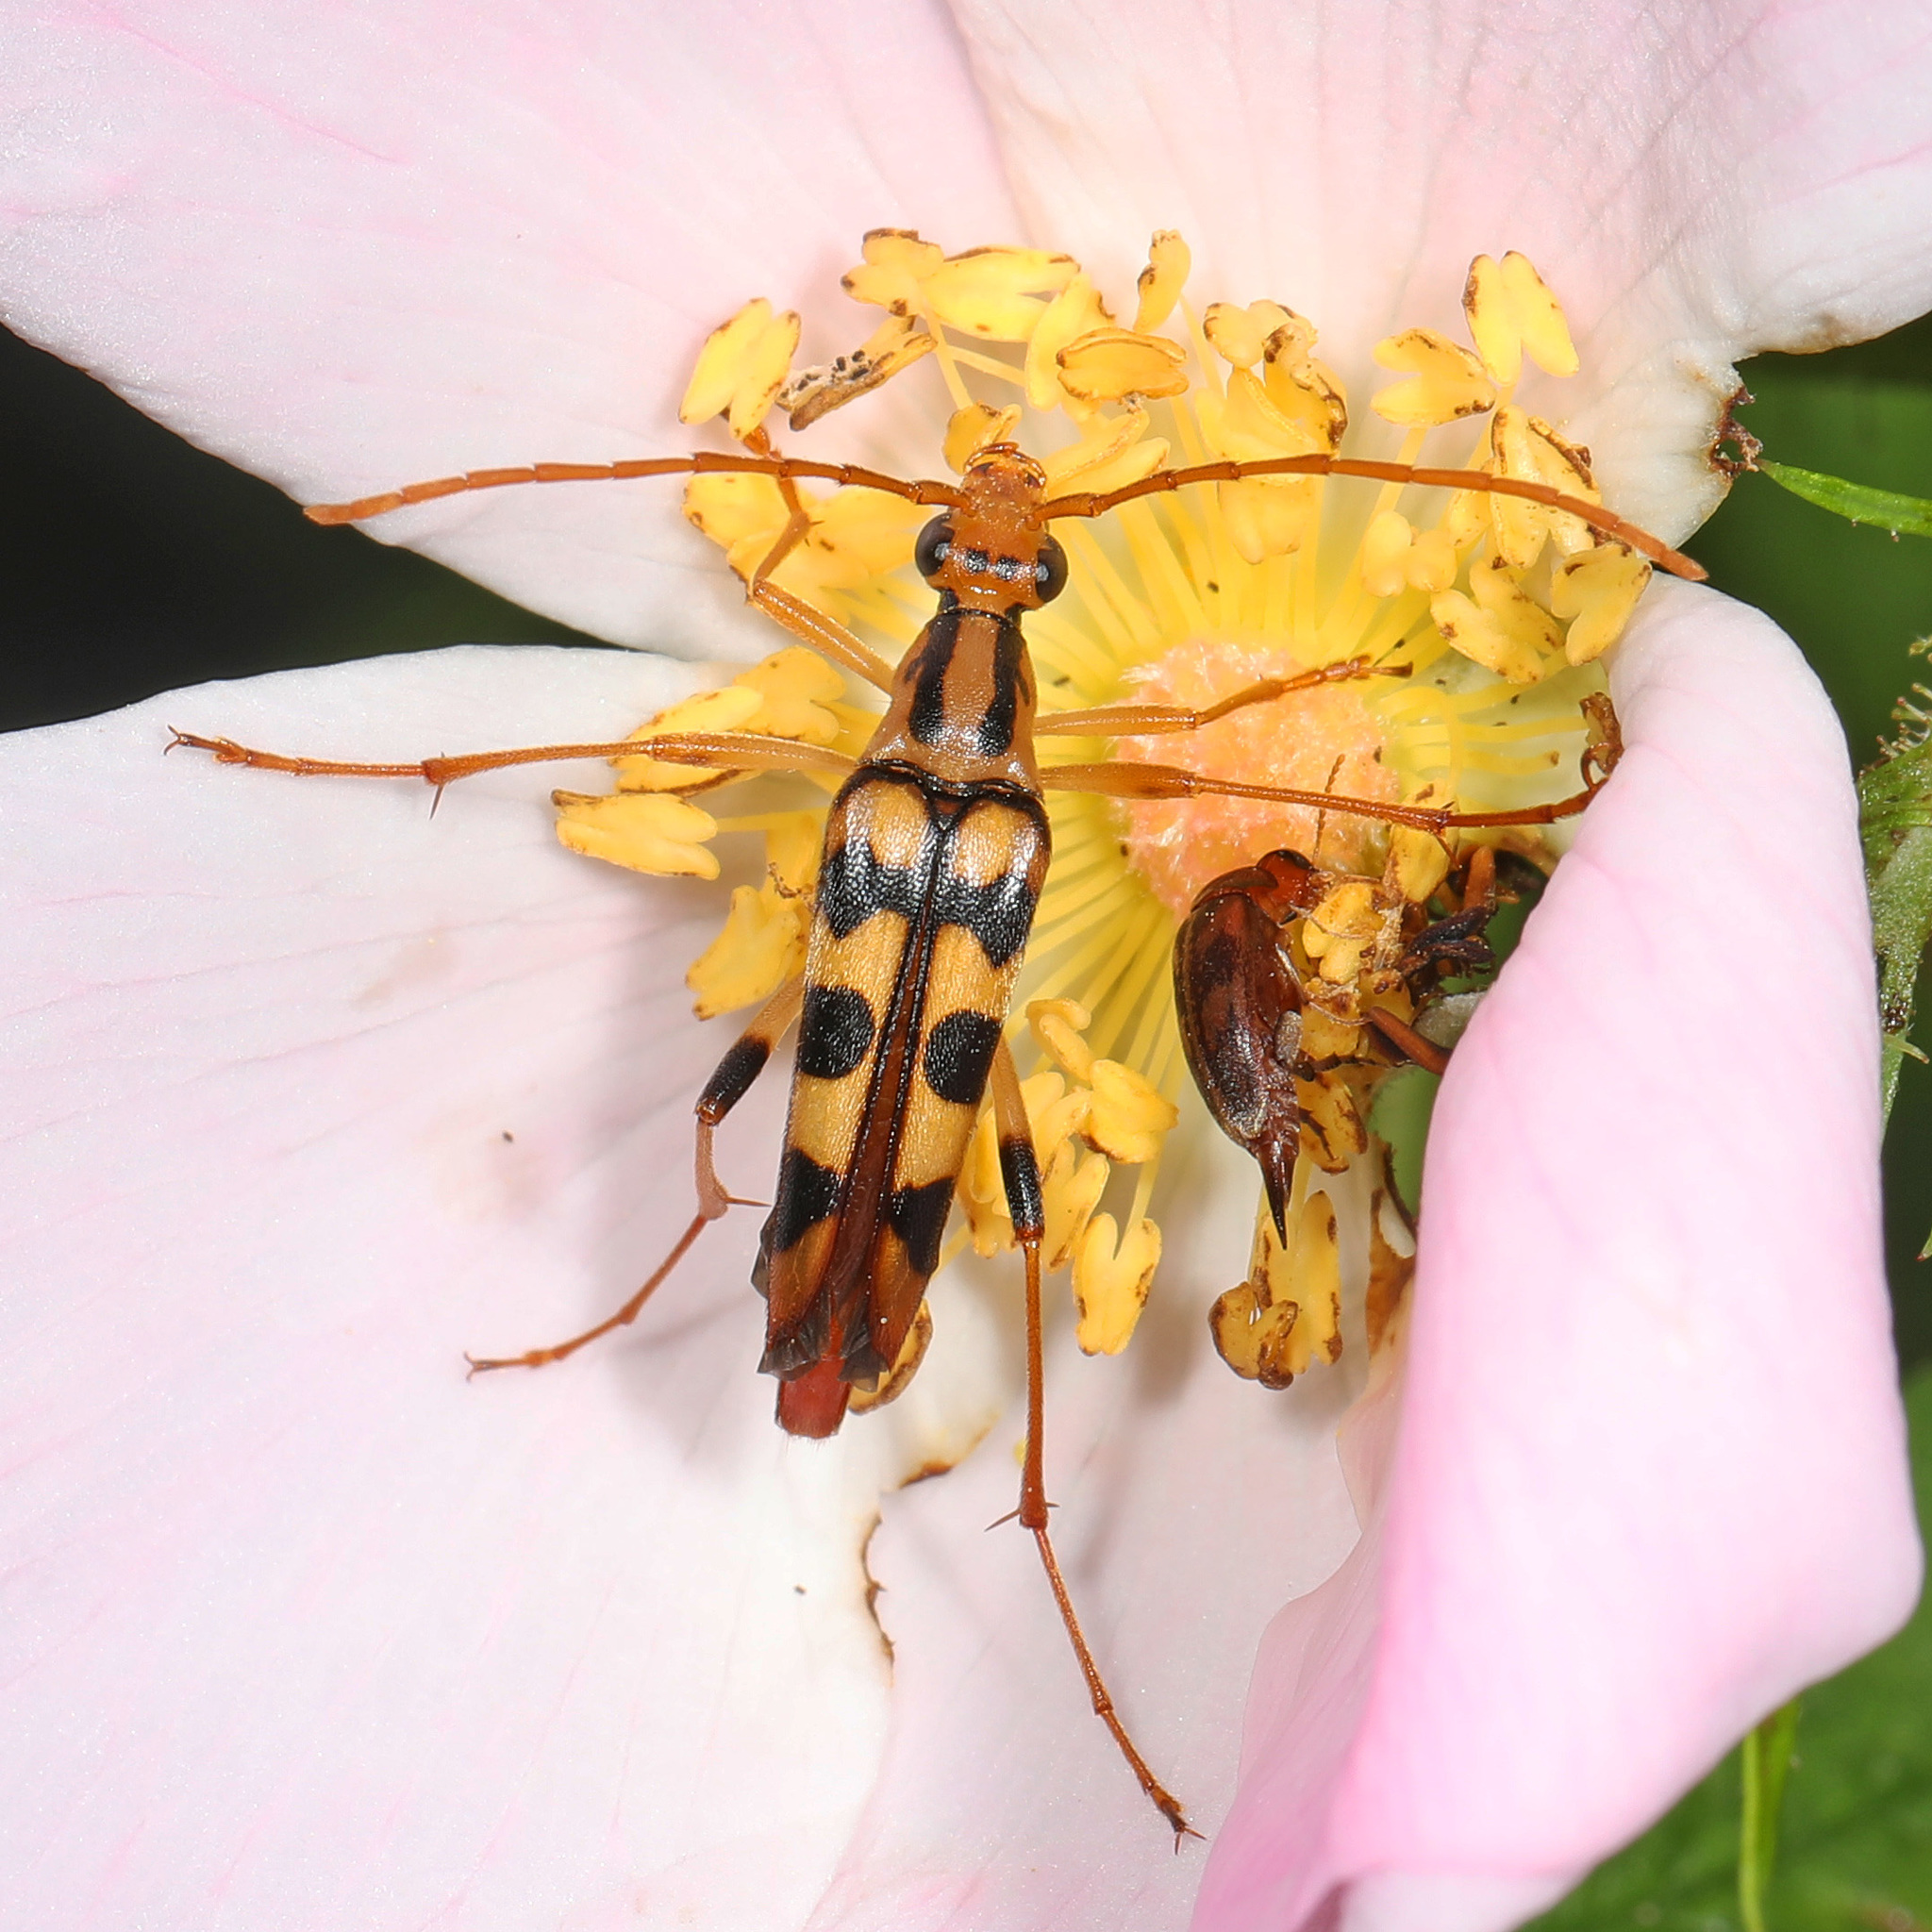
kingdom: Animalia
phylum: Arthropoda
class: Insecta
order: Coleoptera
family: Cerambycidae
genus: Strangalia
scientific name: Strangalia luteicornis
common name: Yellow-horned flower longhorn beetle
